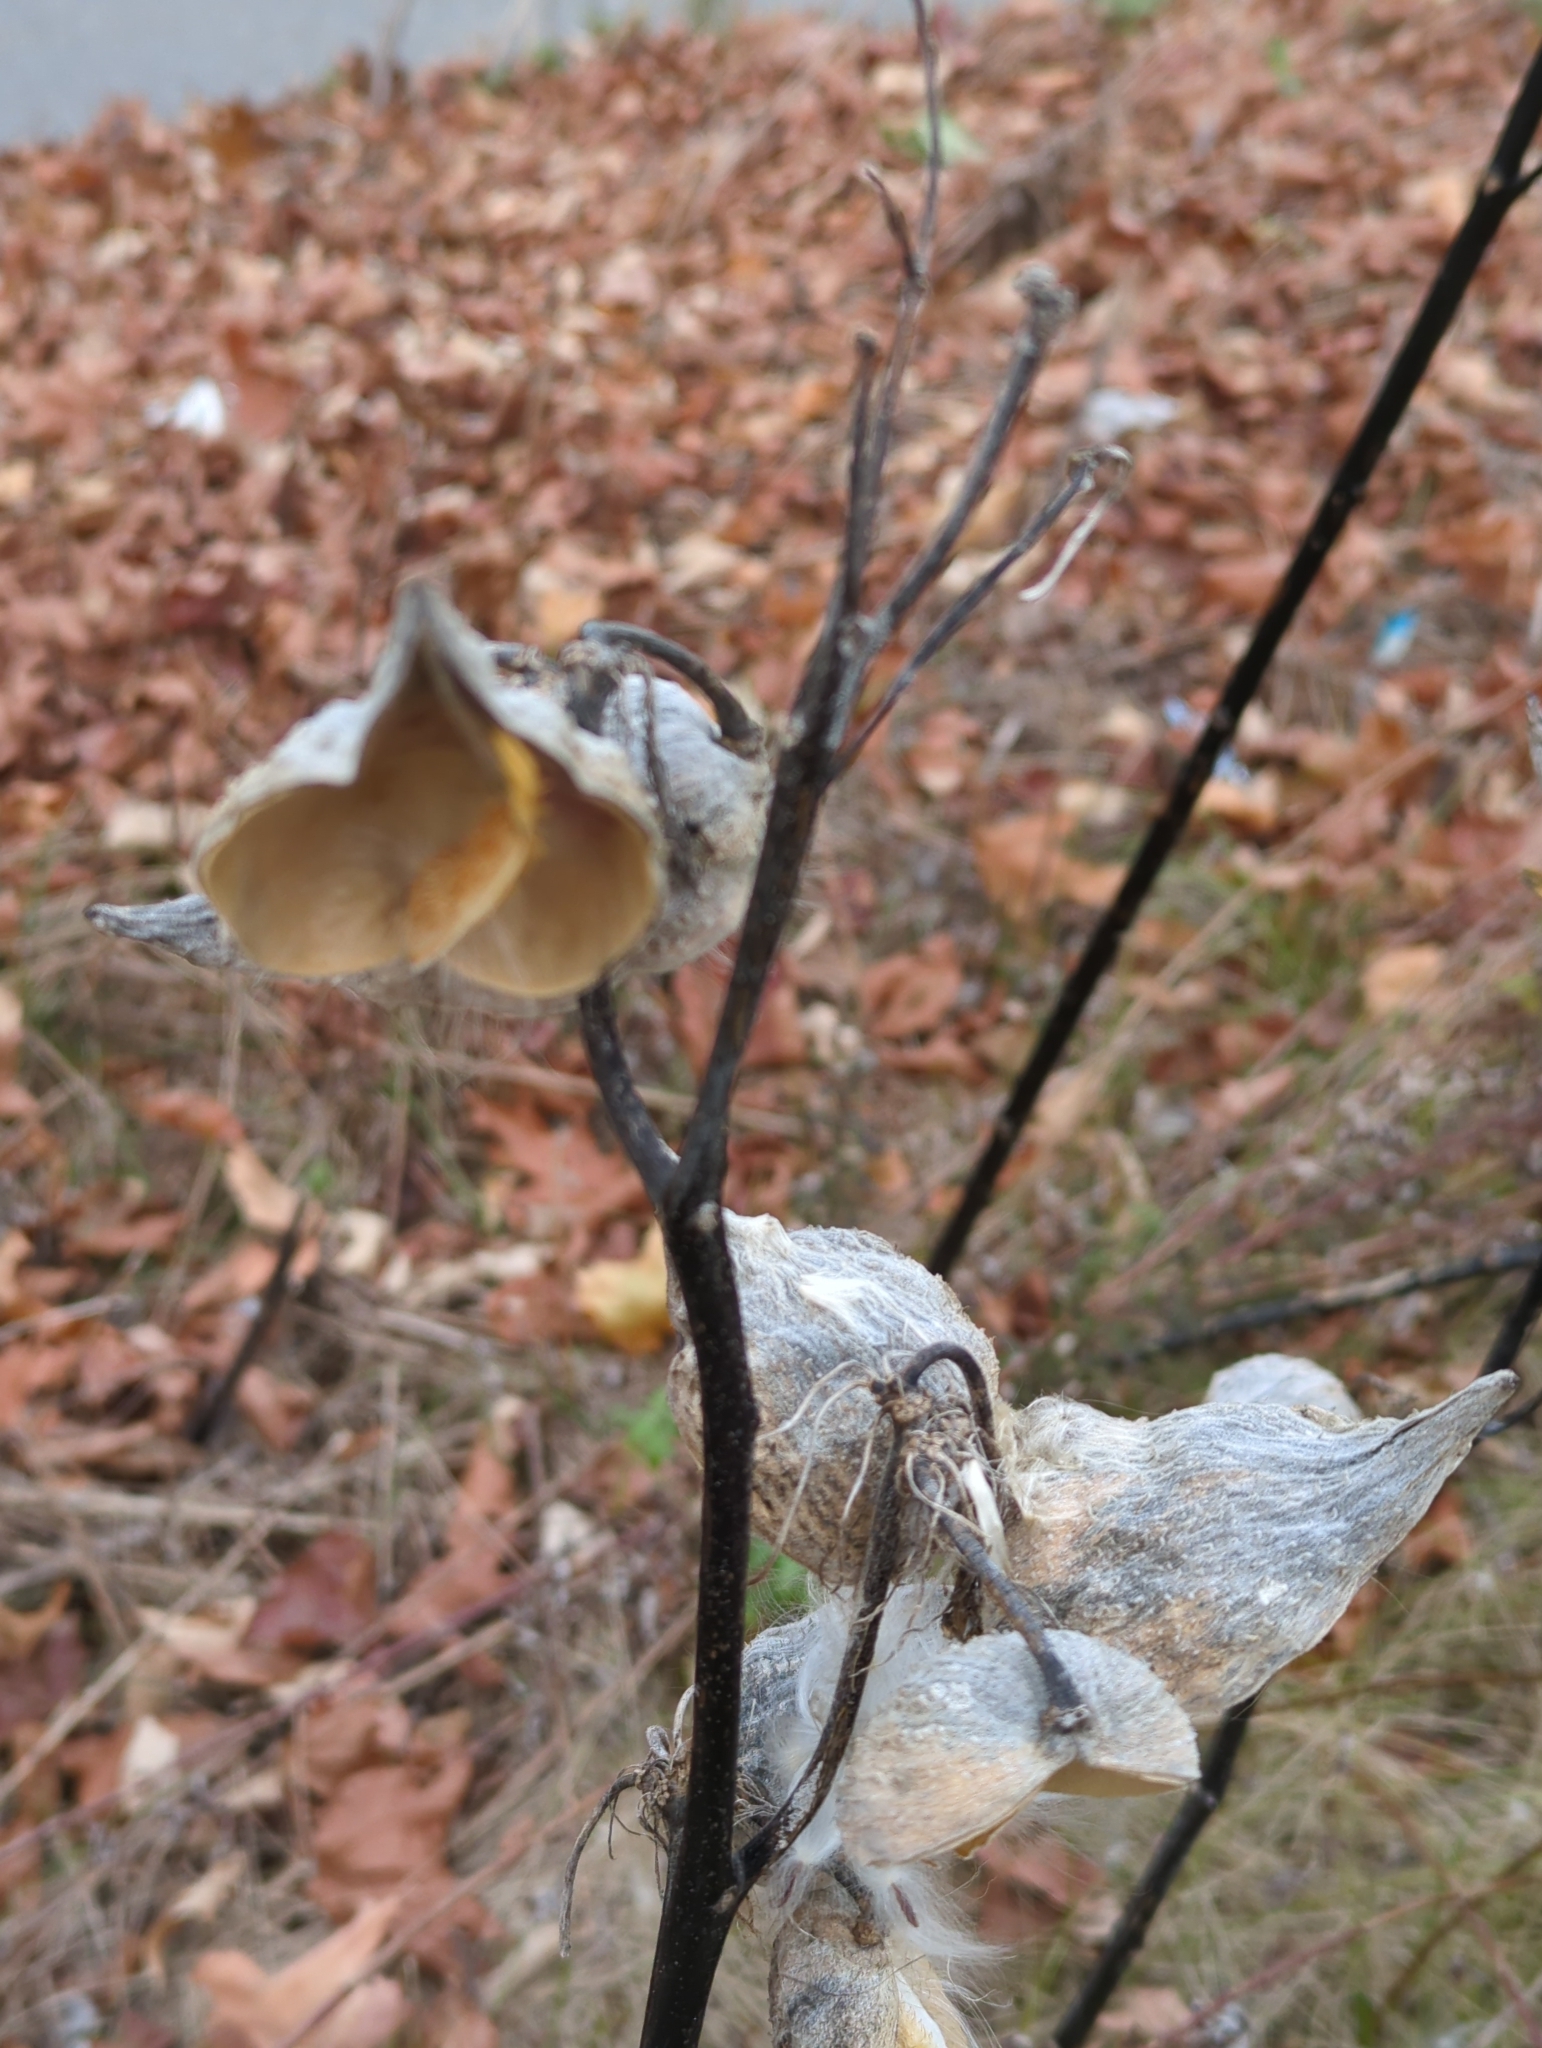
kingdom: Plantae
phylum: Tracheophyta
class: Magnoliopsida
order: Gentianales
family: Apocynaceae
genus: Asclepias
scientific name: Asclepias syriaca
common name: Common milkweed
